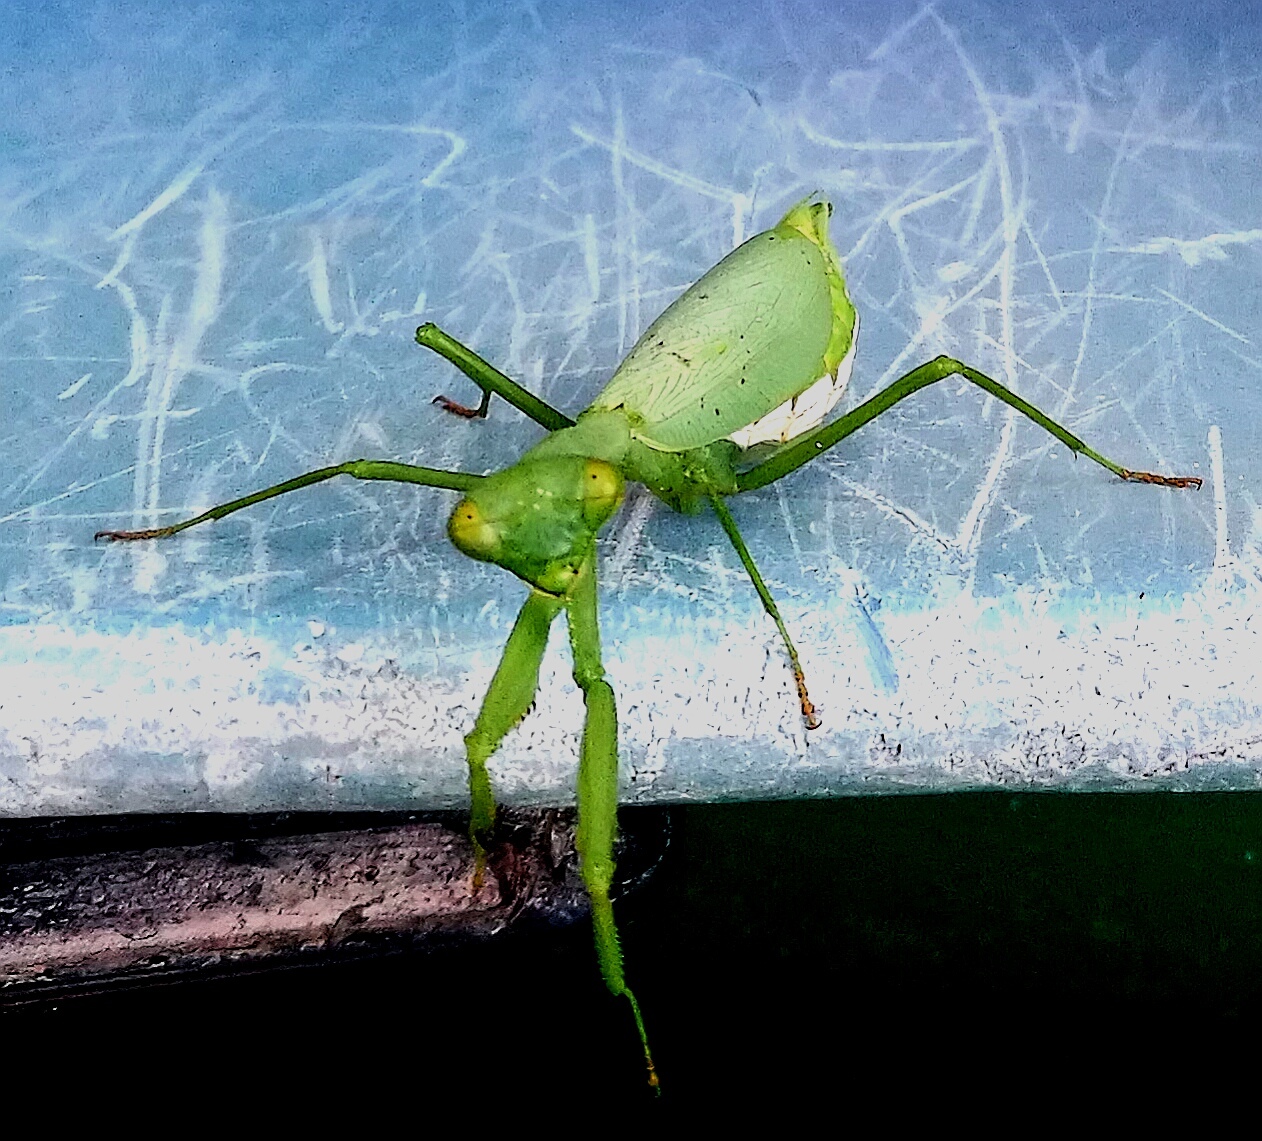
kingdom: Animalia
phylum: Arthropoda
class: Insecta
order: Mantodea
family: Miomantidae
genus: Miomantis
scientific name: Miomantis caffra
